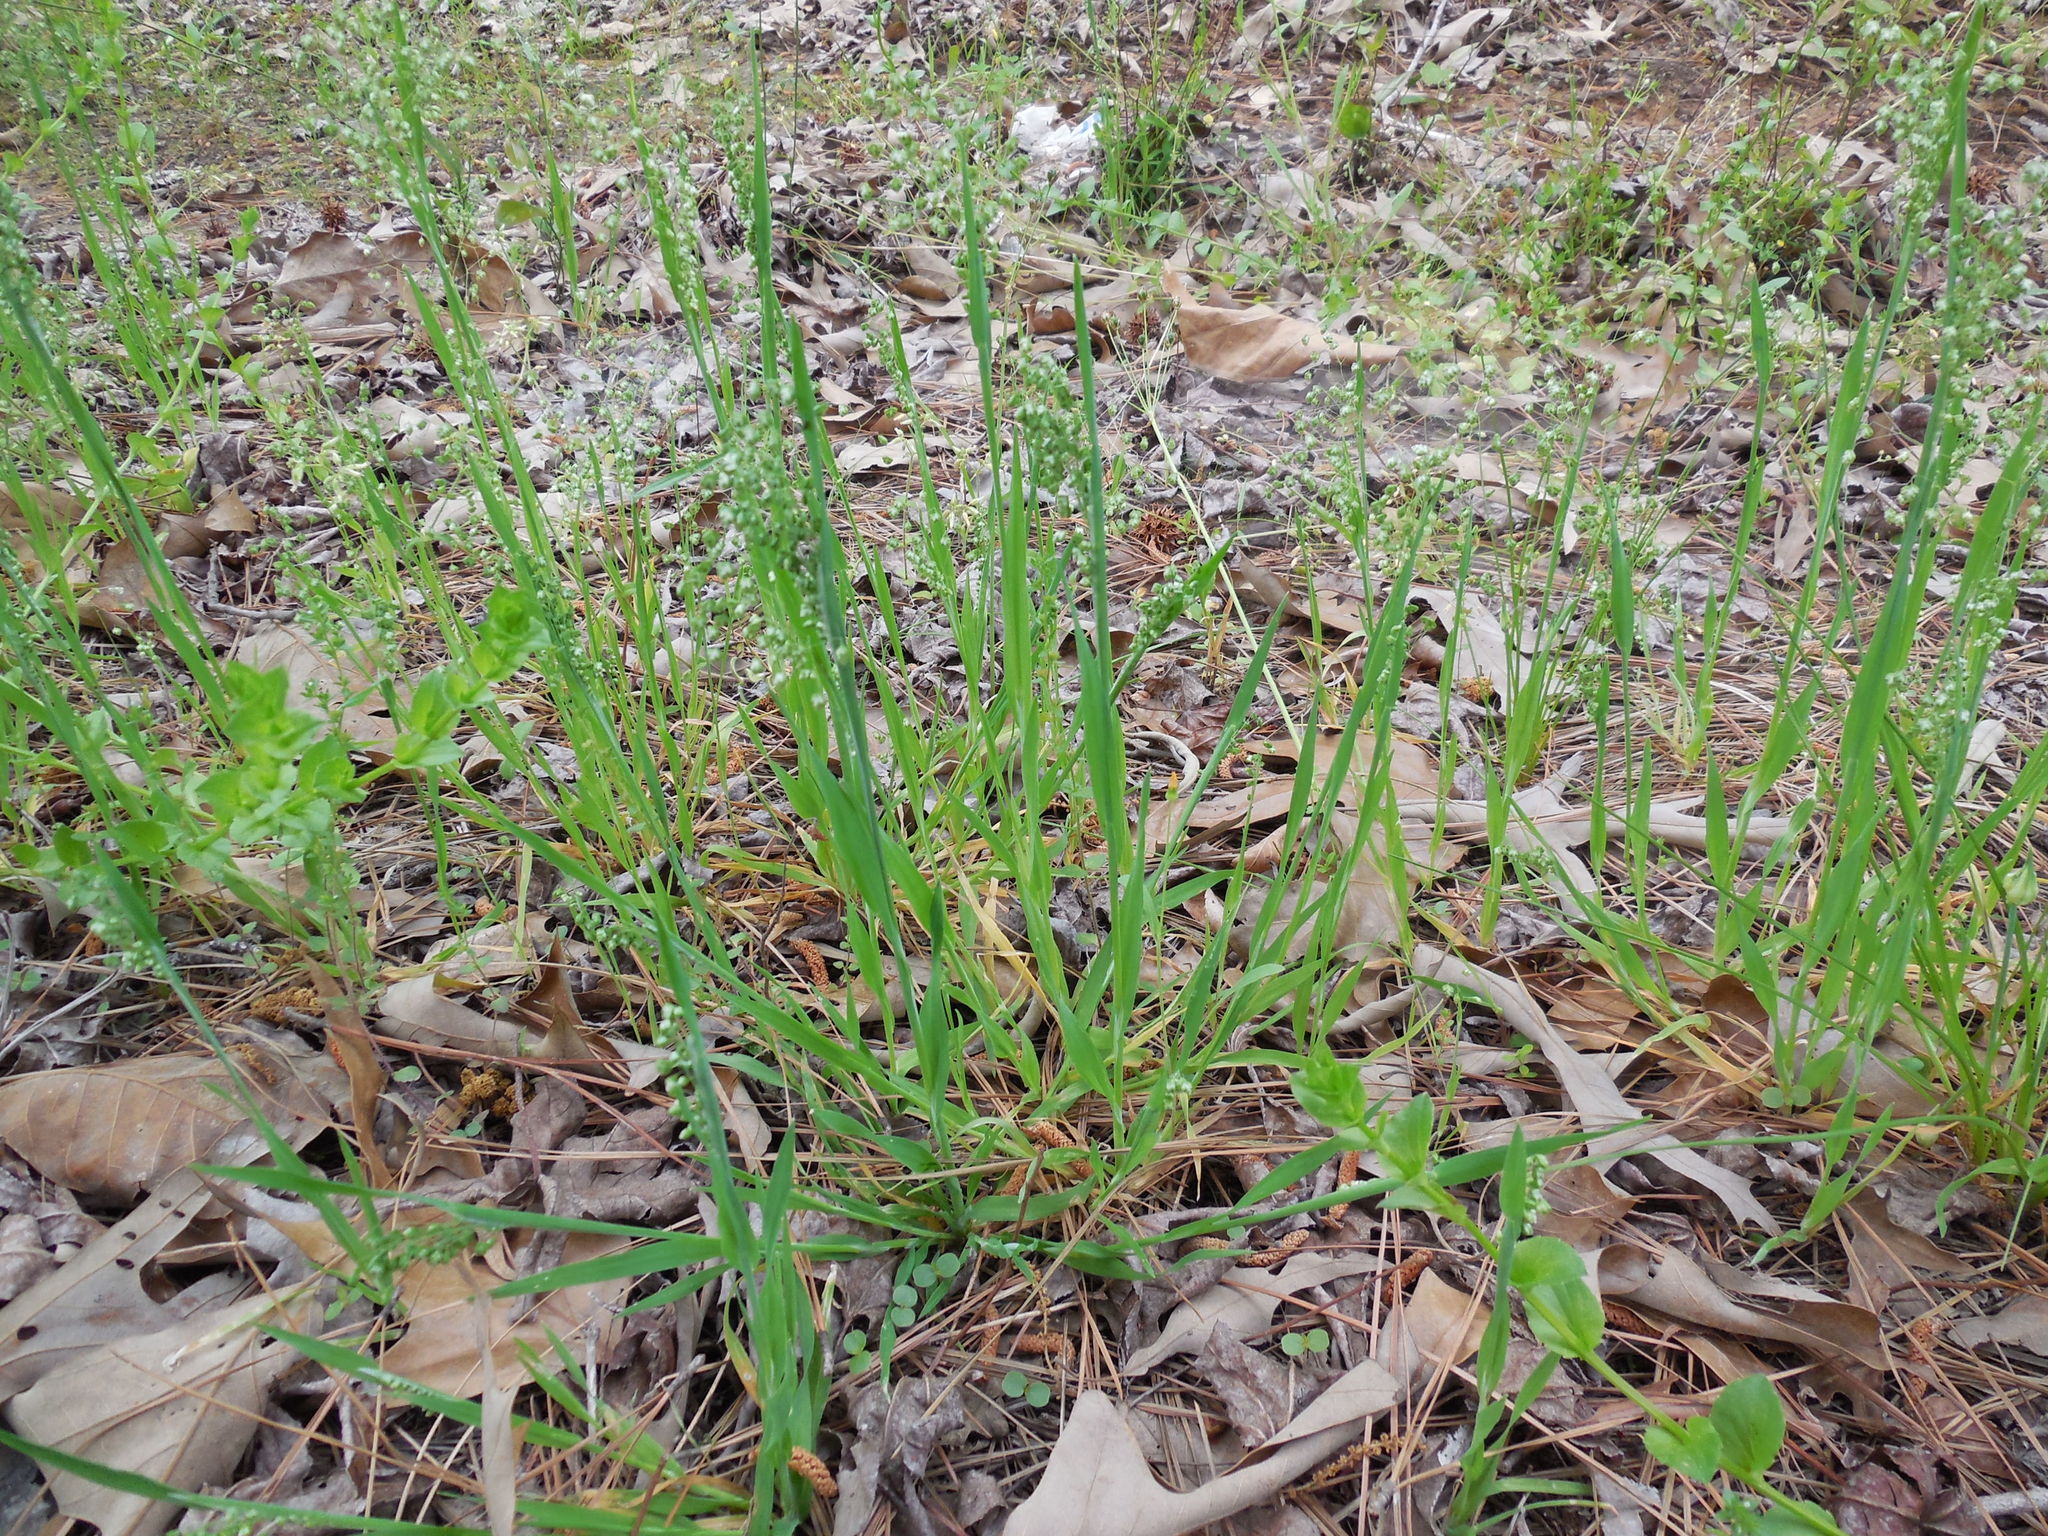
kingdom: Plantae
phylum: Tracheophyta
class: Liliopsida
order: Poales
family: Poaceae
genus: Briza
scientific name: Briza minor
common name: Lesser quaking-grass
